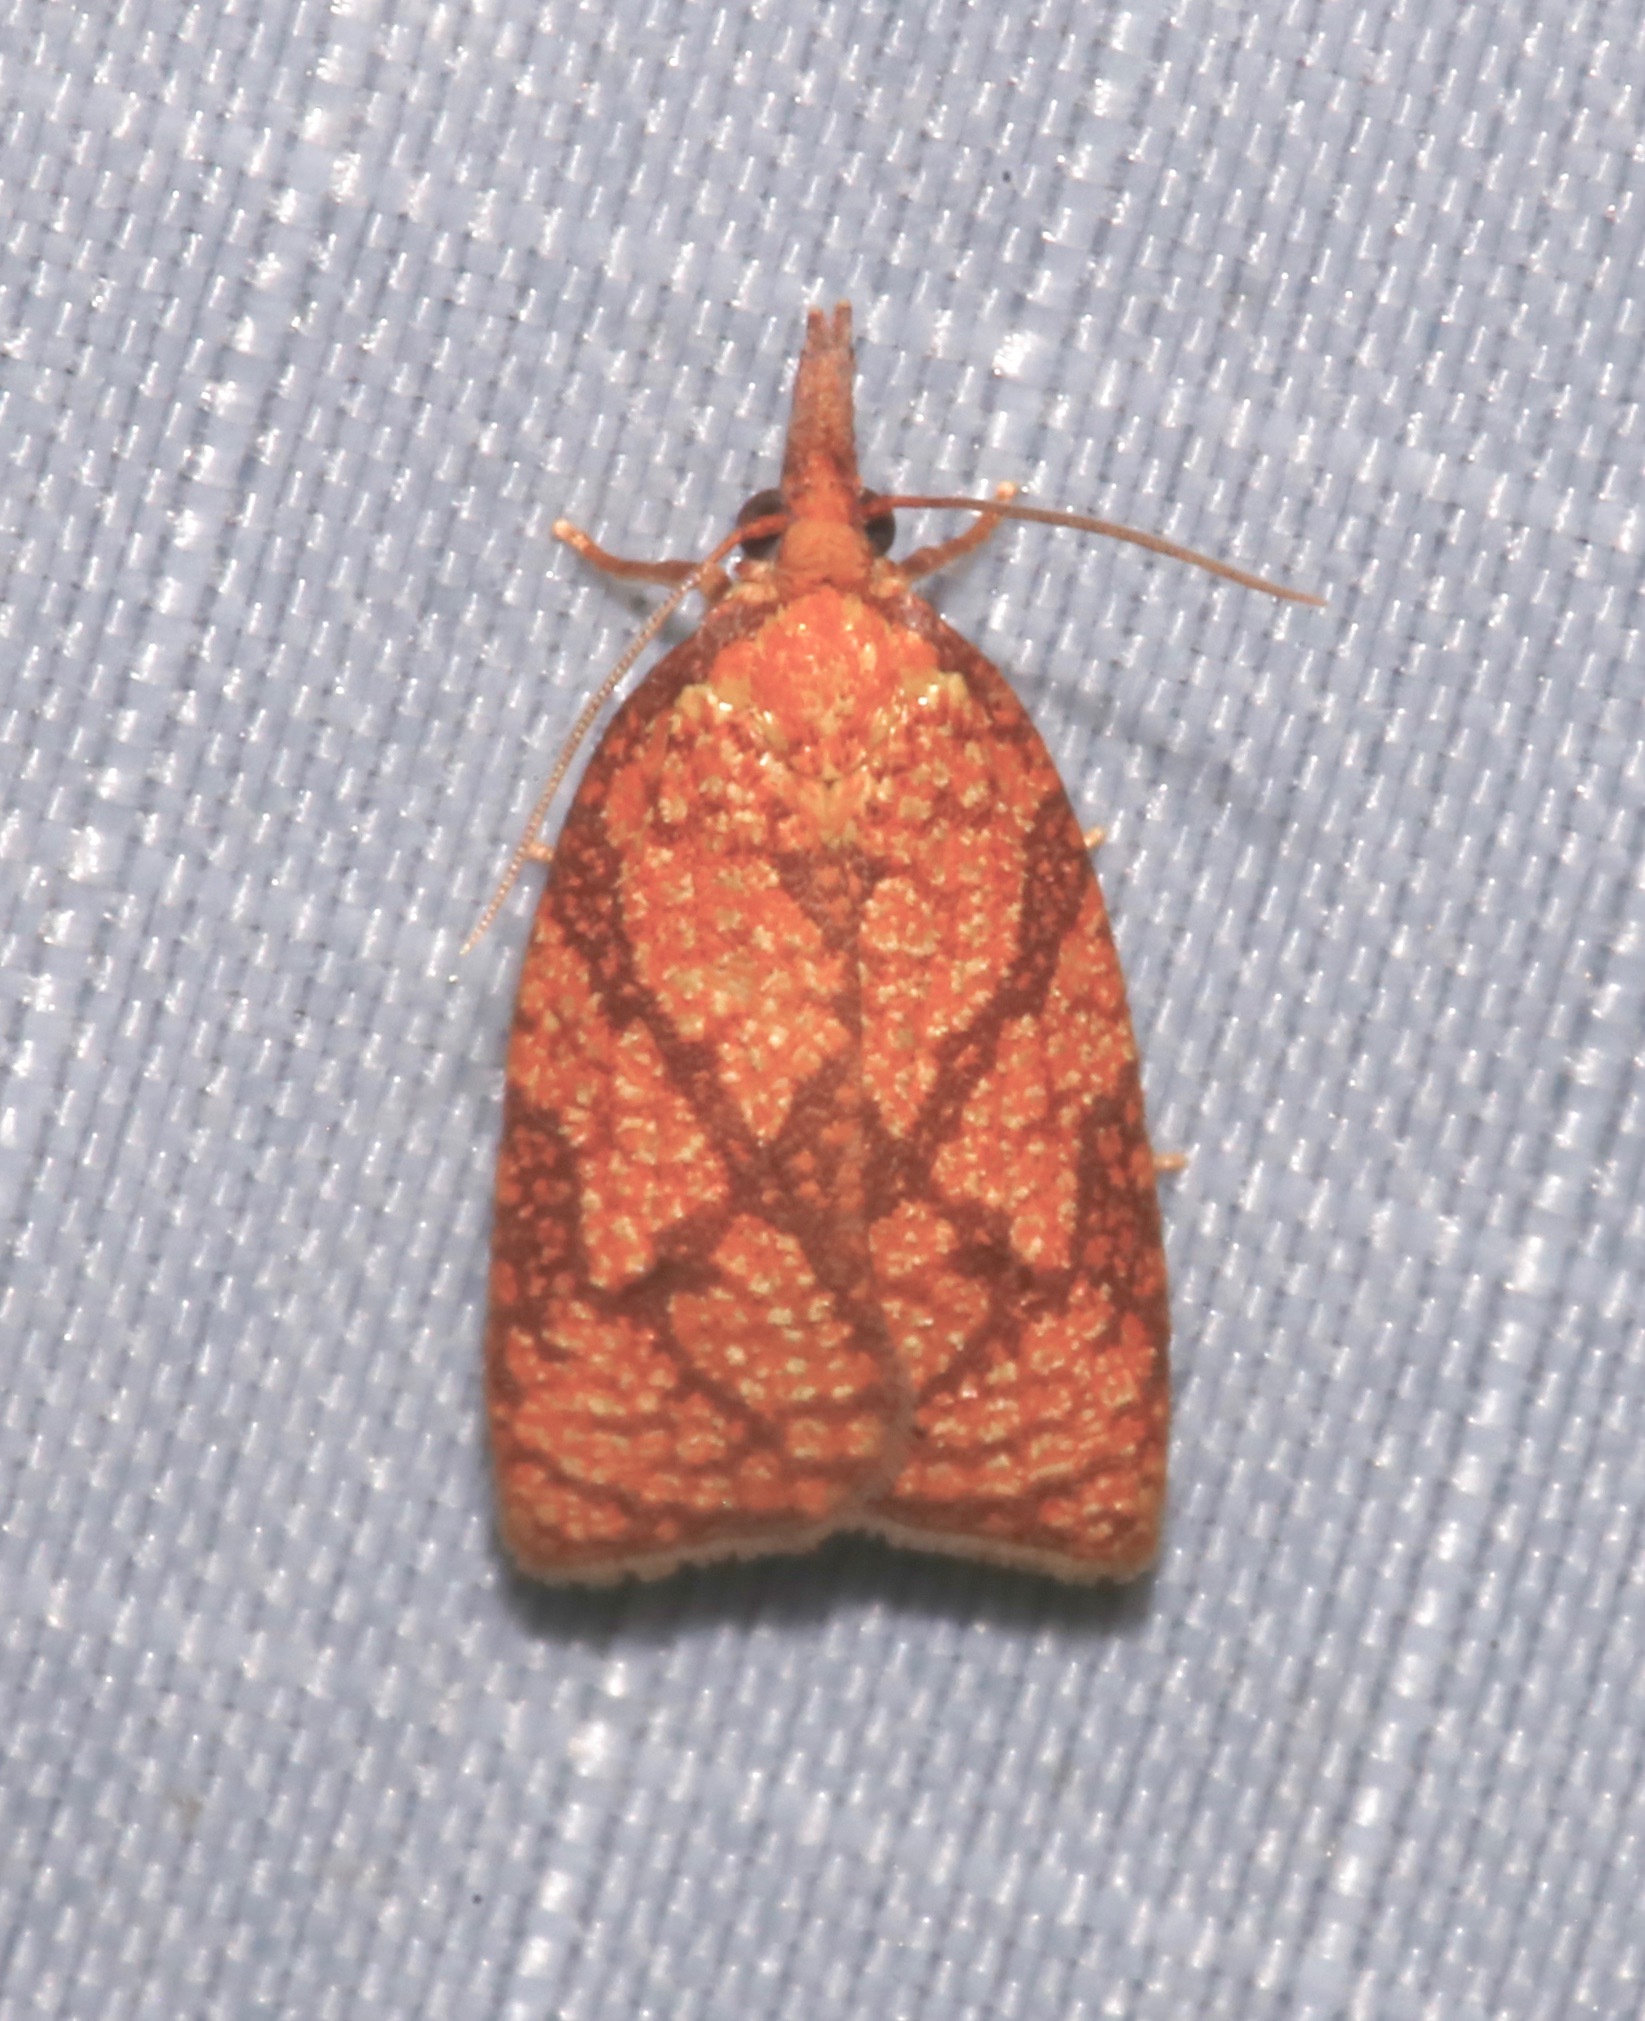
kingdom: Animalia
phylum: Arthropoda
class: Insecta
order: Lepidoptera
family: Tortricidae
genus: Cenopis
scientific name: Cenopis reticulatana
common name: Reticulated fruitworm moth
